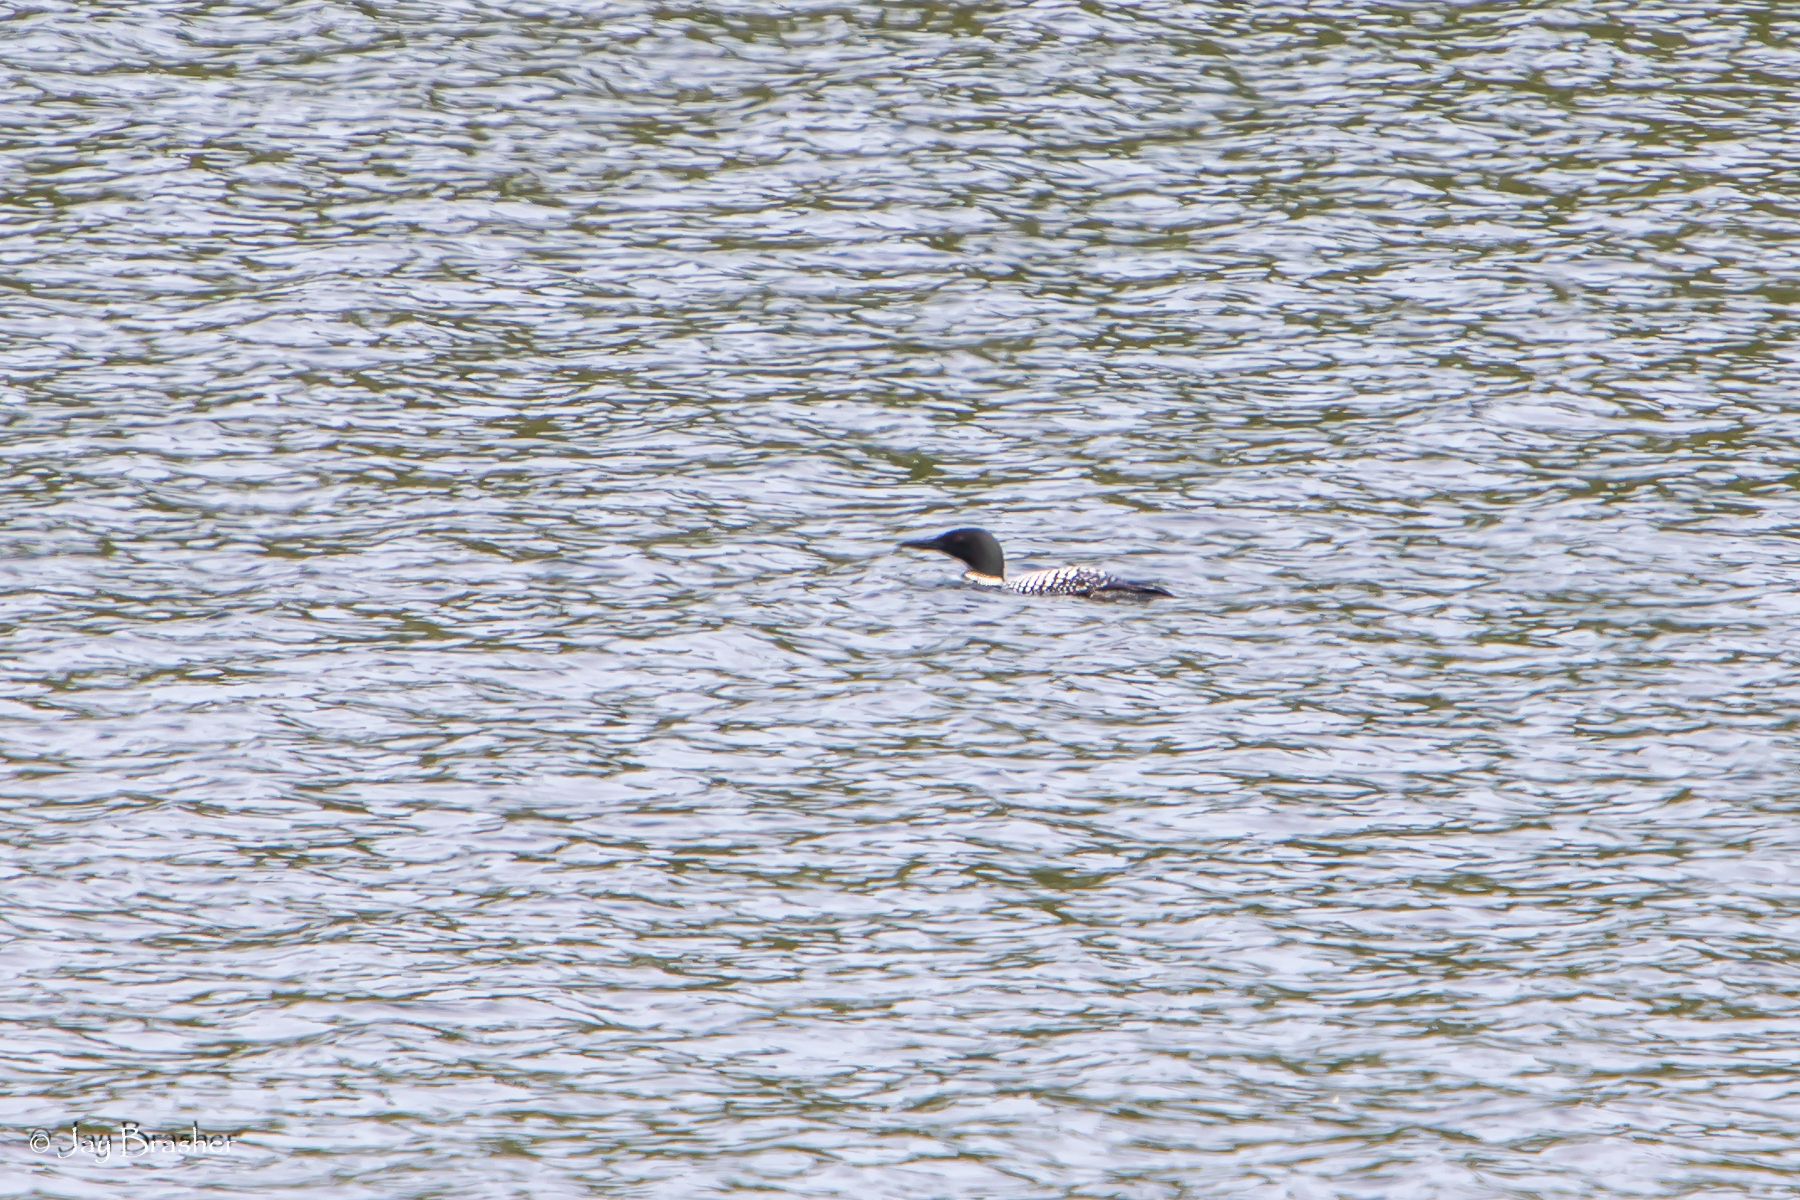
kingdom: Animalia
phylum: Chordata
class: Aves
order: Gaviiformes
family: Gaviidae
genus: Gavia
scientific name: Gavia immer
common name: Common loon
